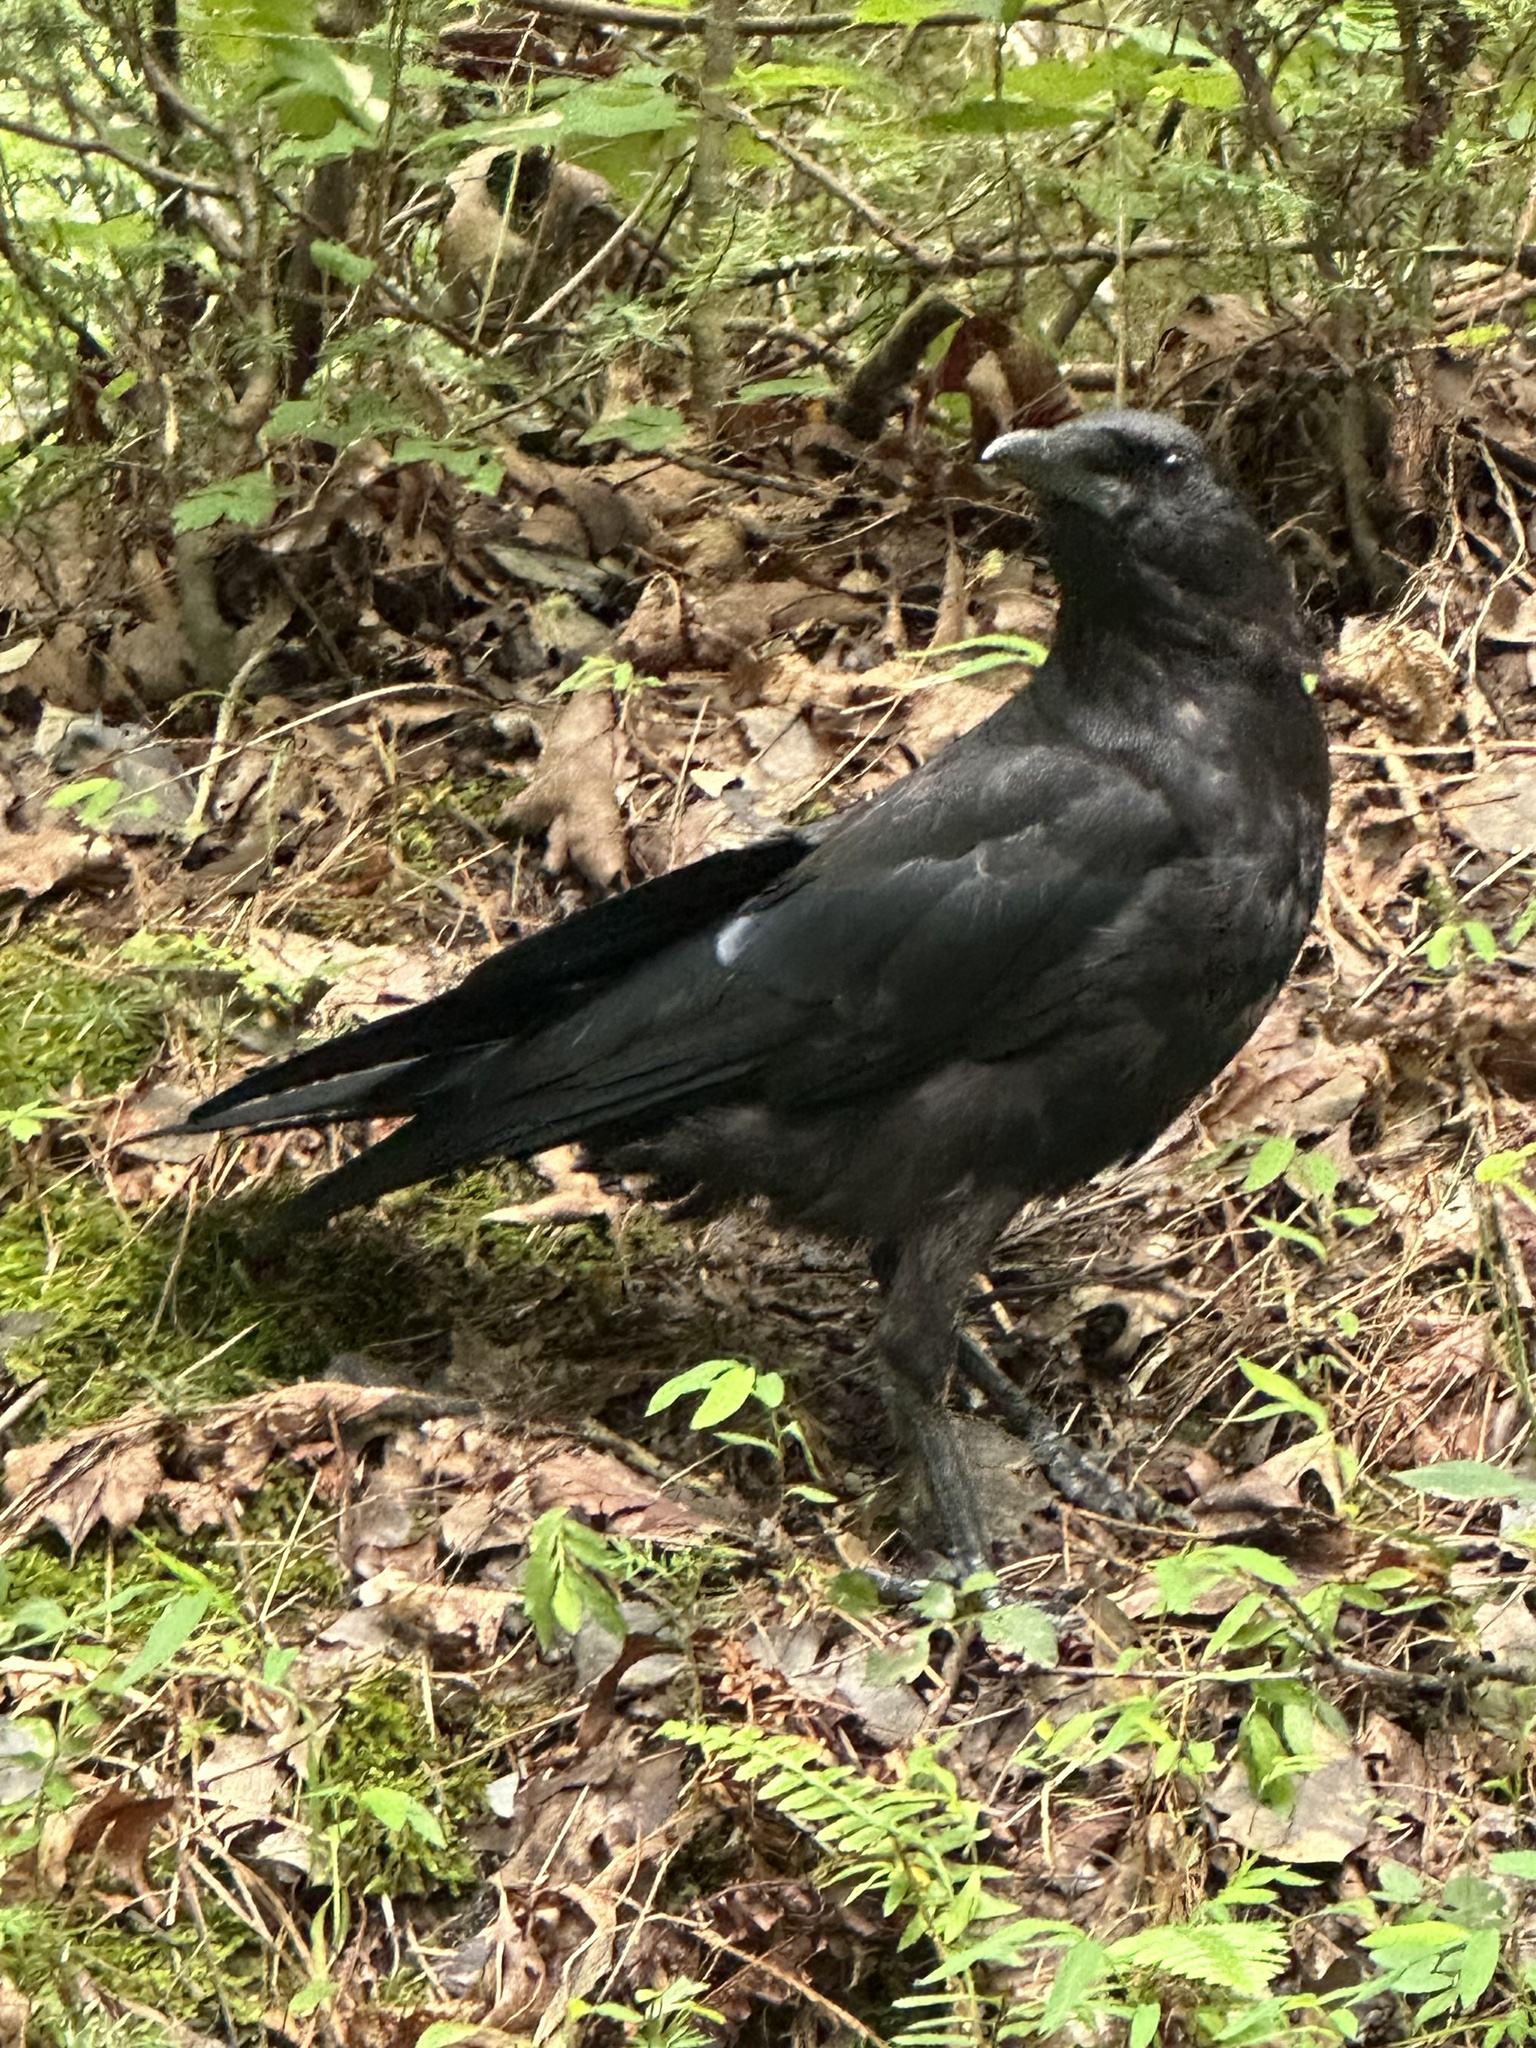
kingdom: Animalia
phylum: Chordata
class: Aves
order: Passeriformes
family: Corvidae
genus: Corvus
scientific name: Corvus brachyrhynchos
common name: American crow
